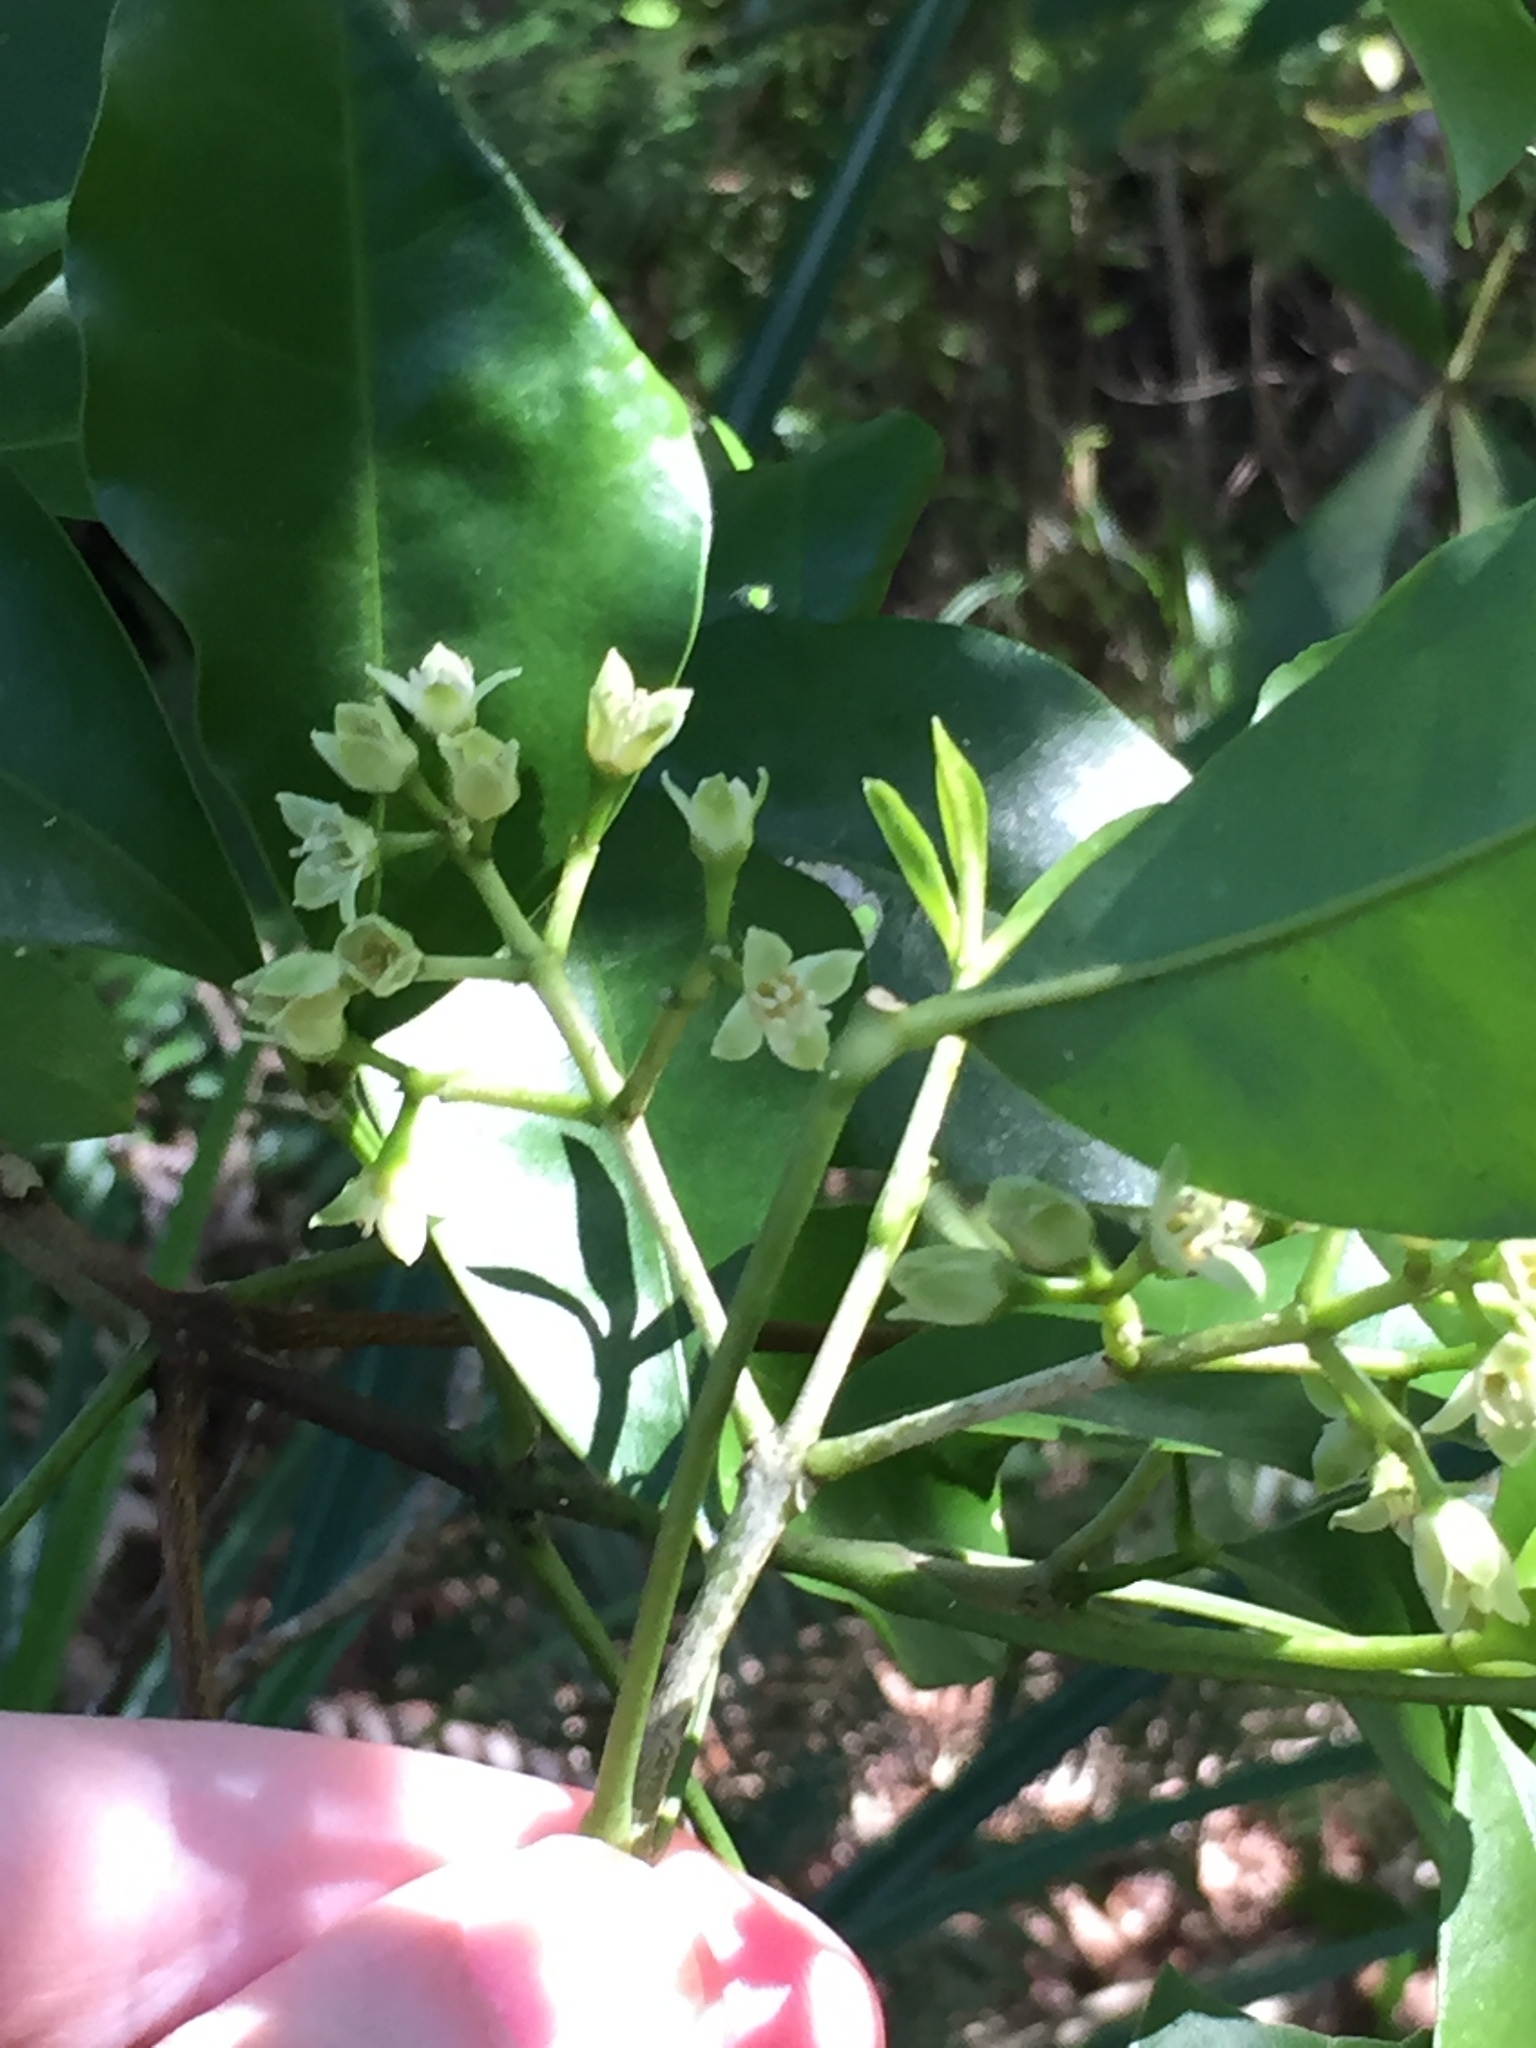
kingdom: Plantae
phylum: Tracheophyta
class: Magnoliopsida
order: Sapindales
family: Rutaceae
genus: Melicope
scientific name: Melicope ternata
